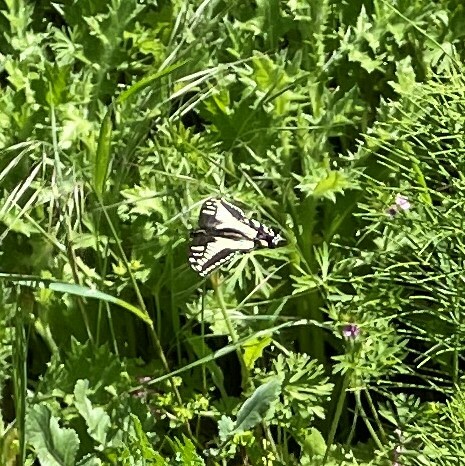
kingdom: Animalia
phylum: Arthropoda
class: Insecta
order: Lepidoptera
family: Papilionidae
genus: Papilio
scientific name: Papilio zelicaon
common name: Anise swallowtail
